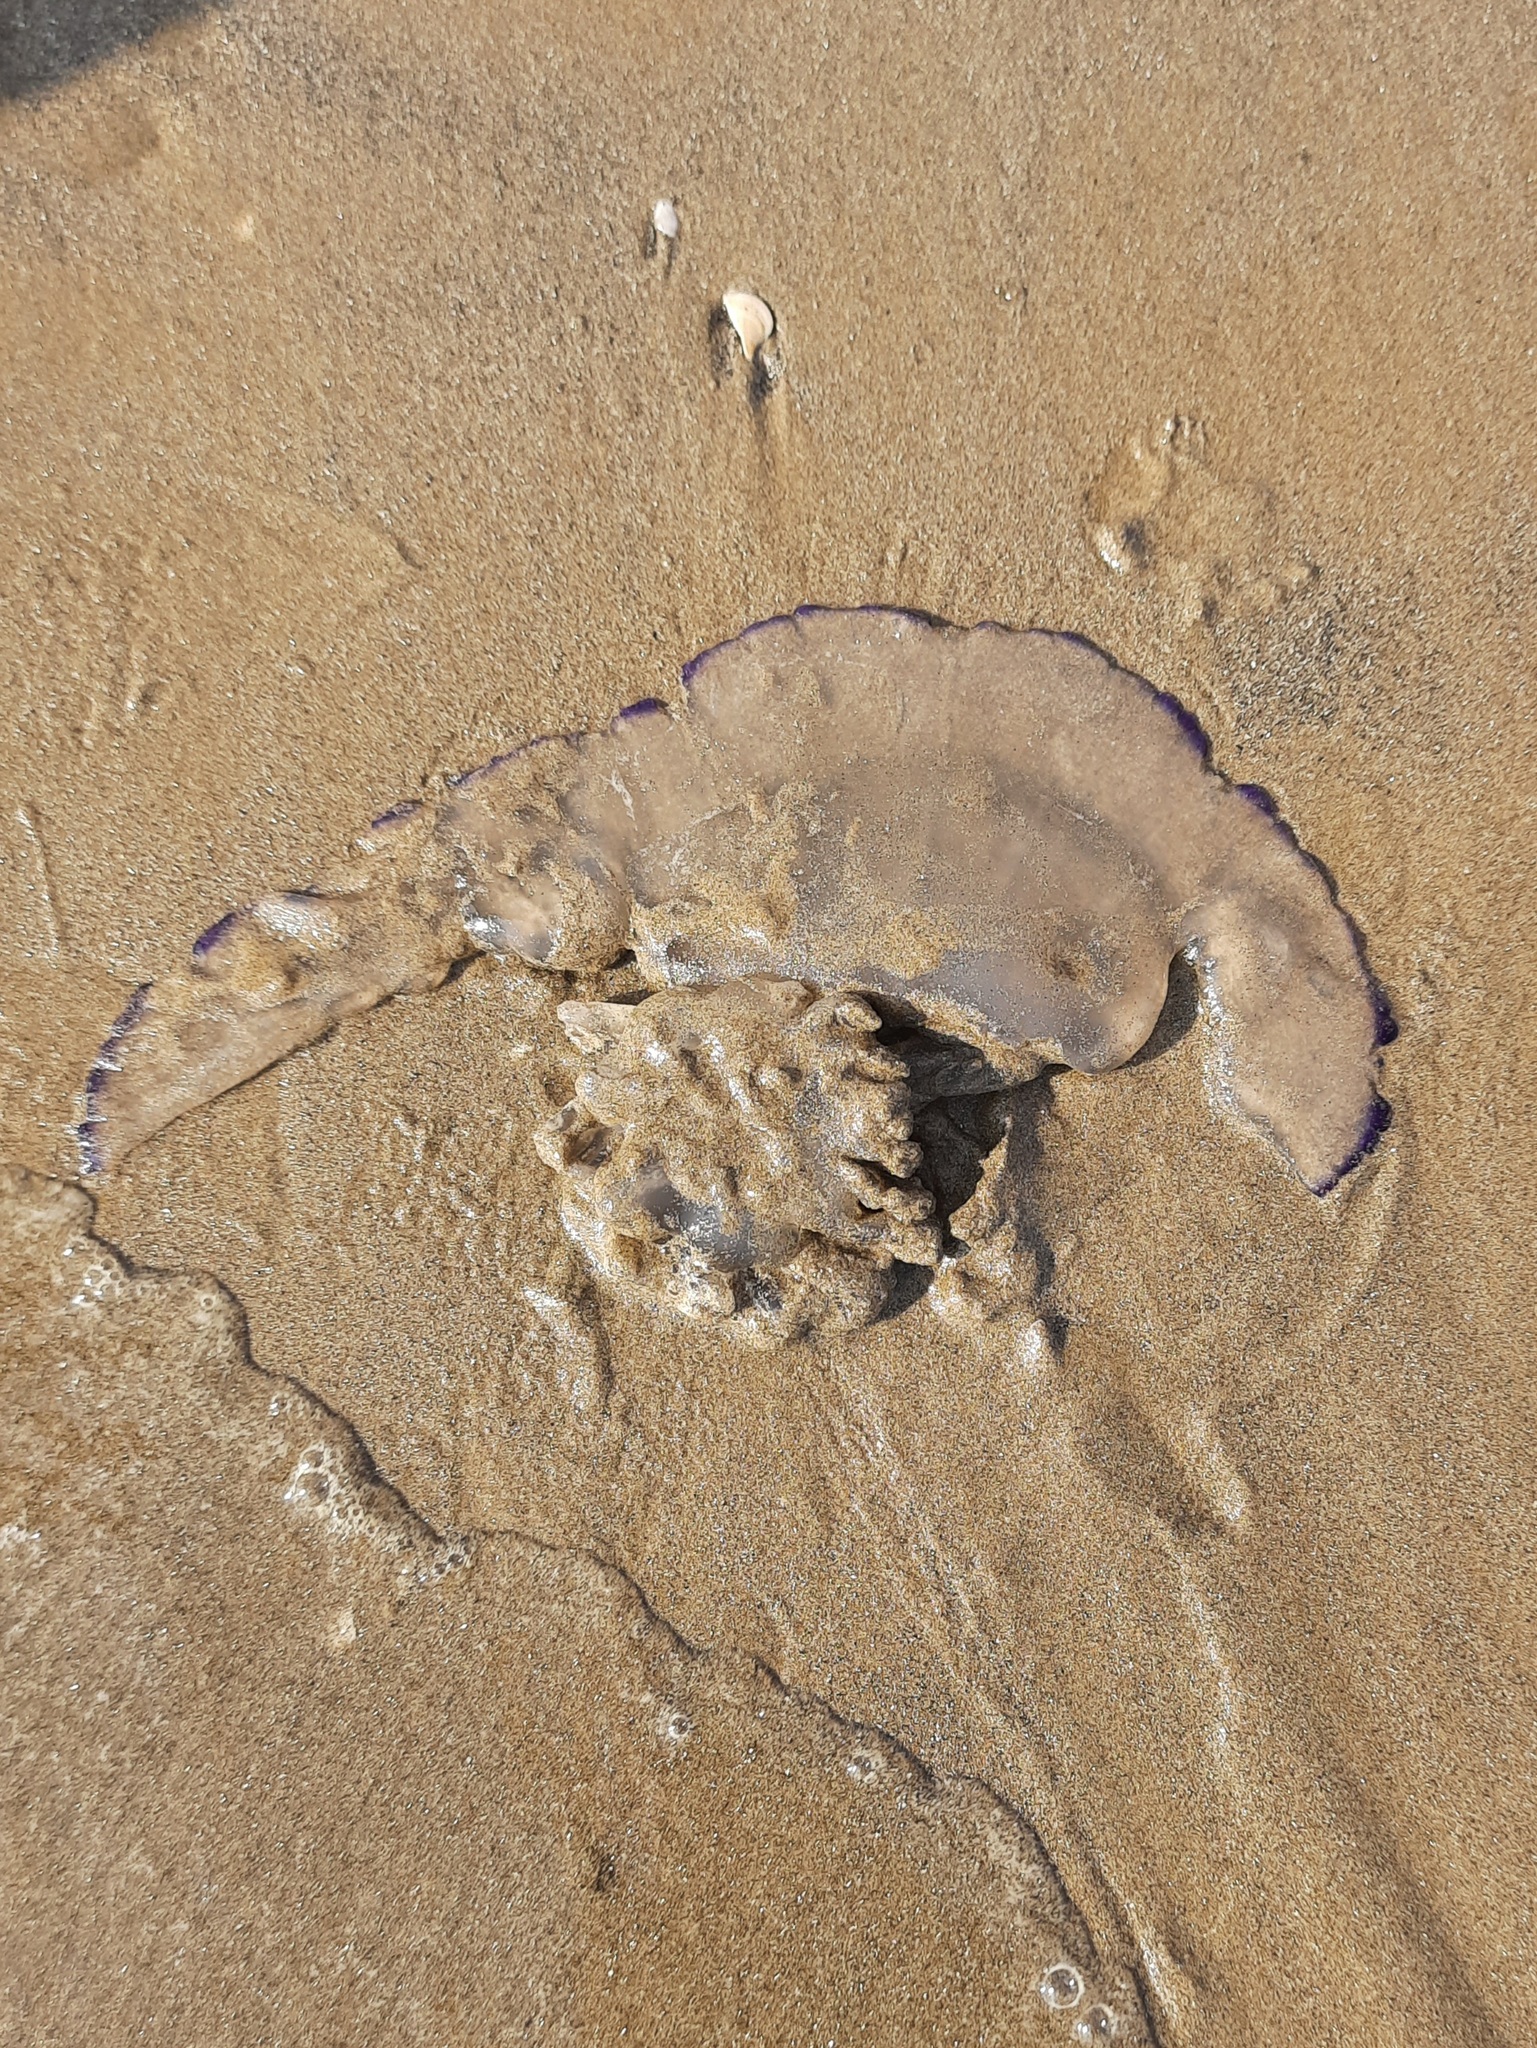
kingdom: Animalia
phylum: Cnidaria
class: Scyphozoa
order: Rhizostomeae
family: Rhizostomatidae
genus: Rhizostoma
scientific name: Rhizostoma pulmo
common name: Barrel jellyfish
